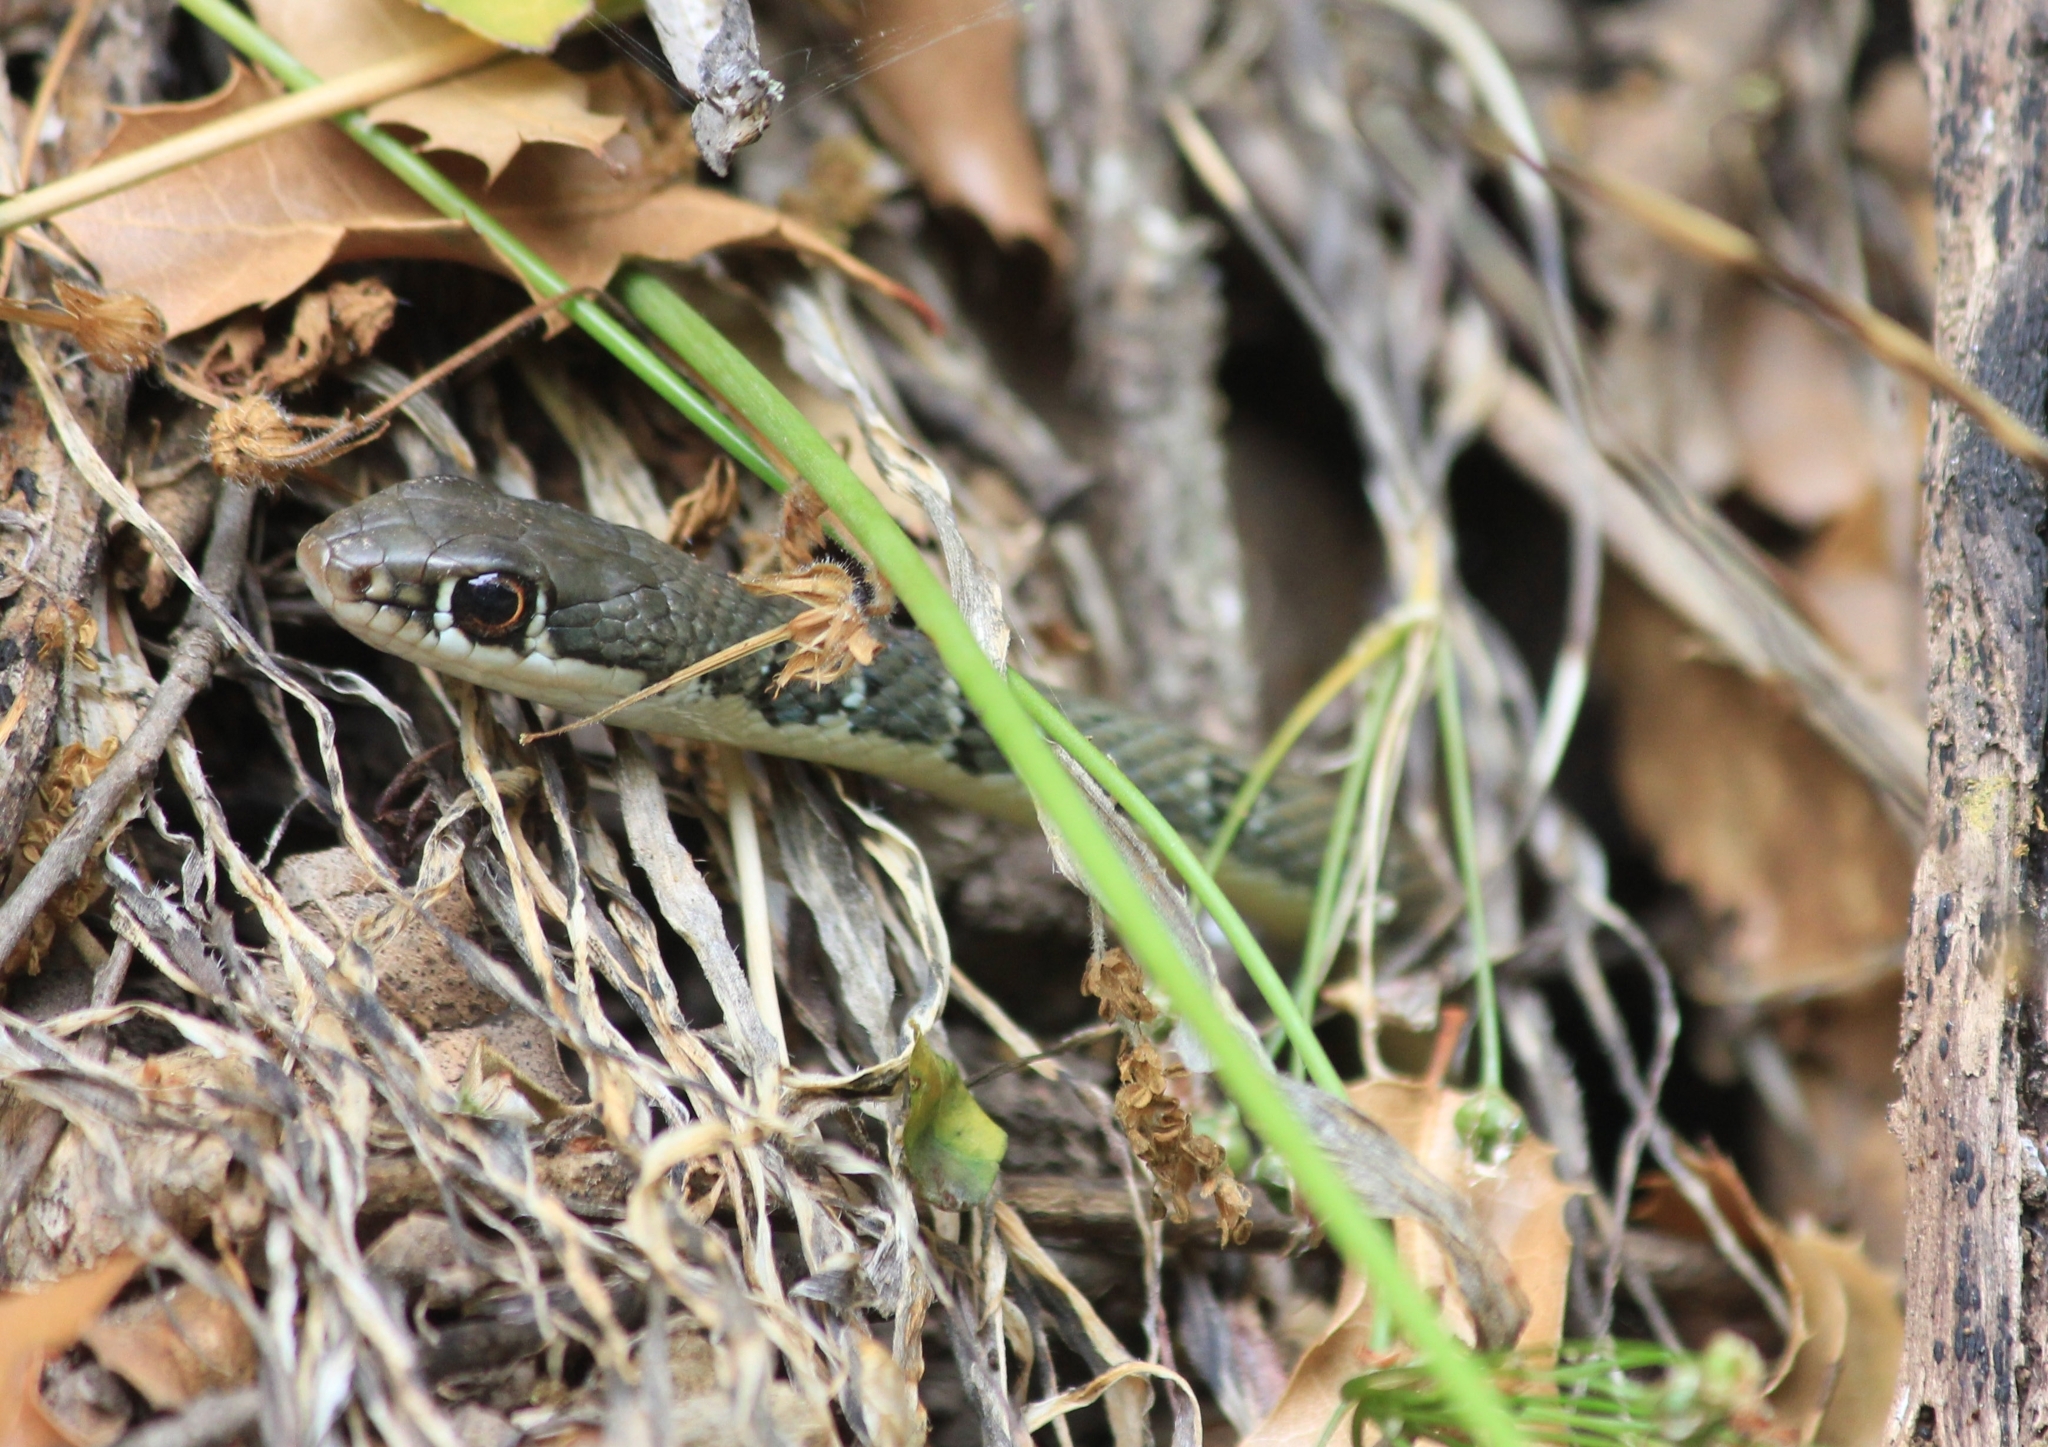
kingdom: Animalia
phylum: Chordata
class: Squamata
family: Colubridae
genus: Platyceps
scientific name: Platyceps najadum
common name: Dahl's whip snake
